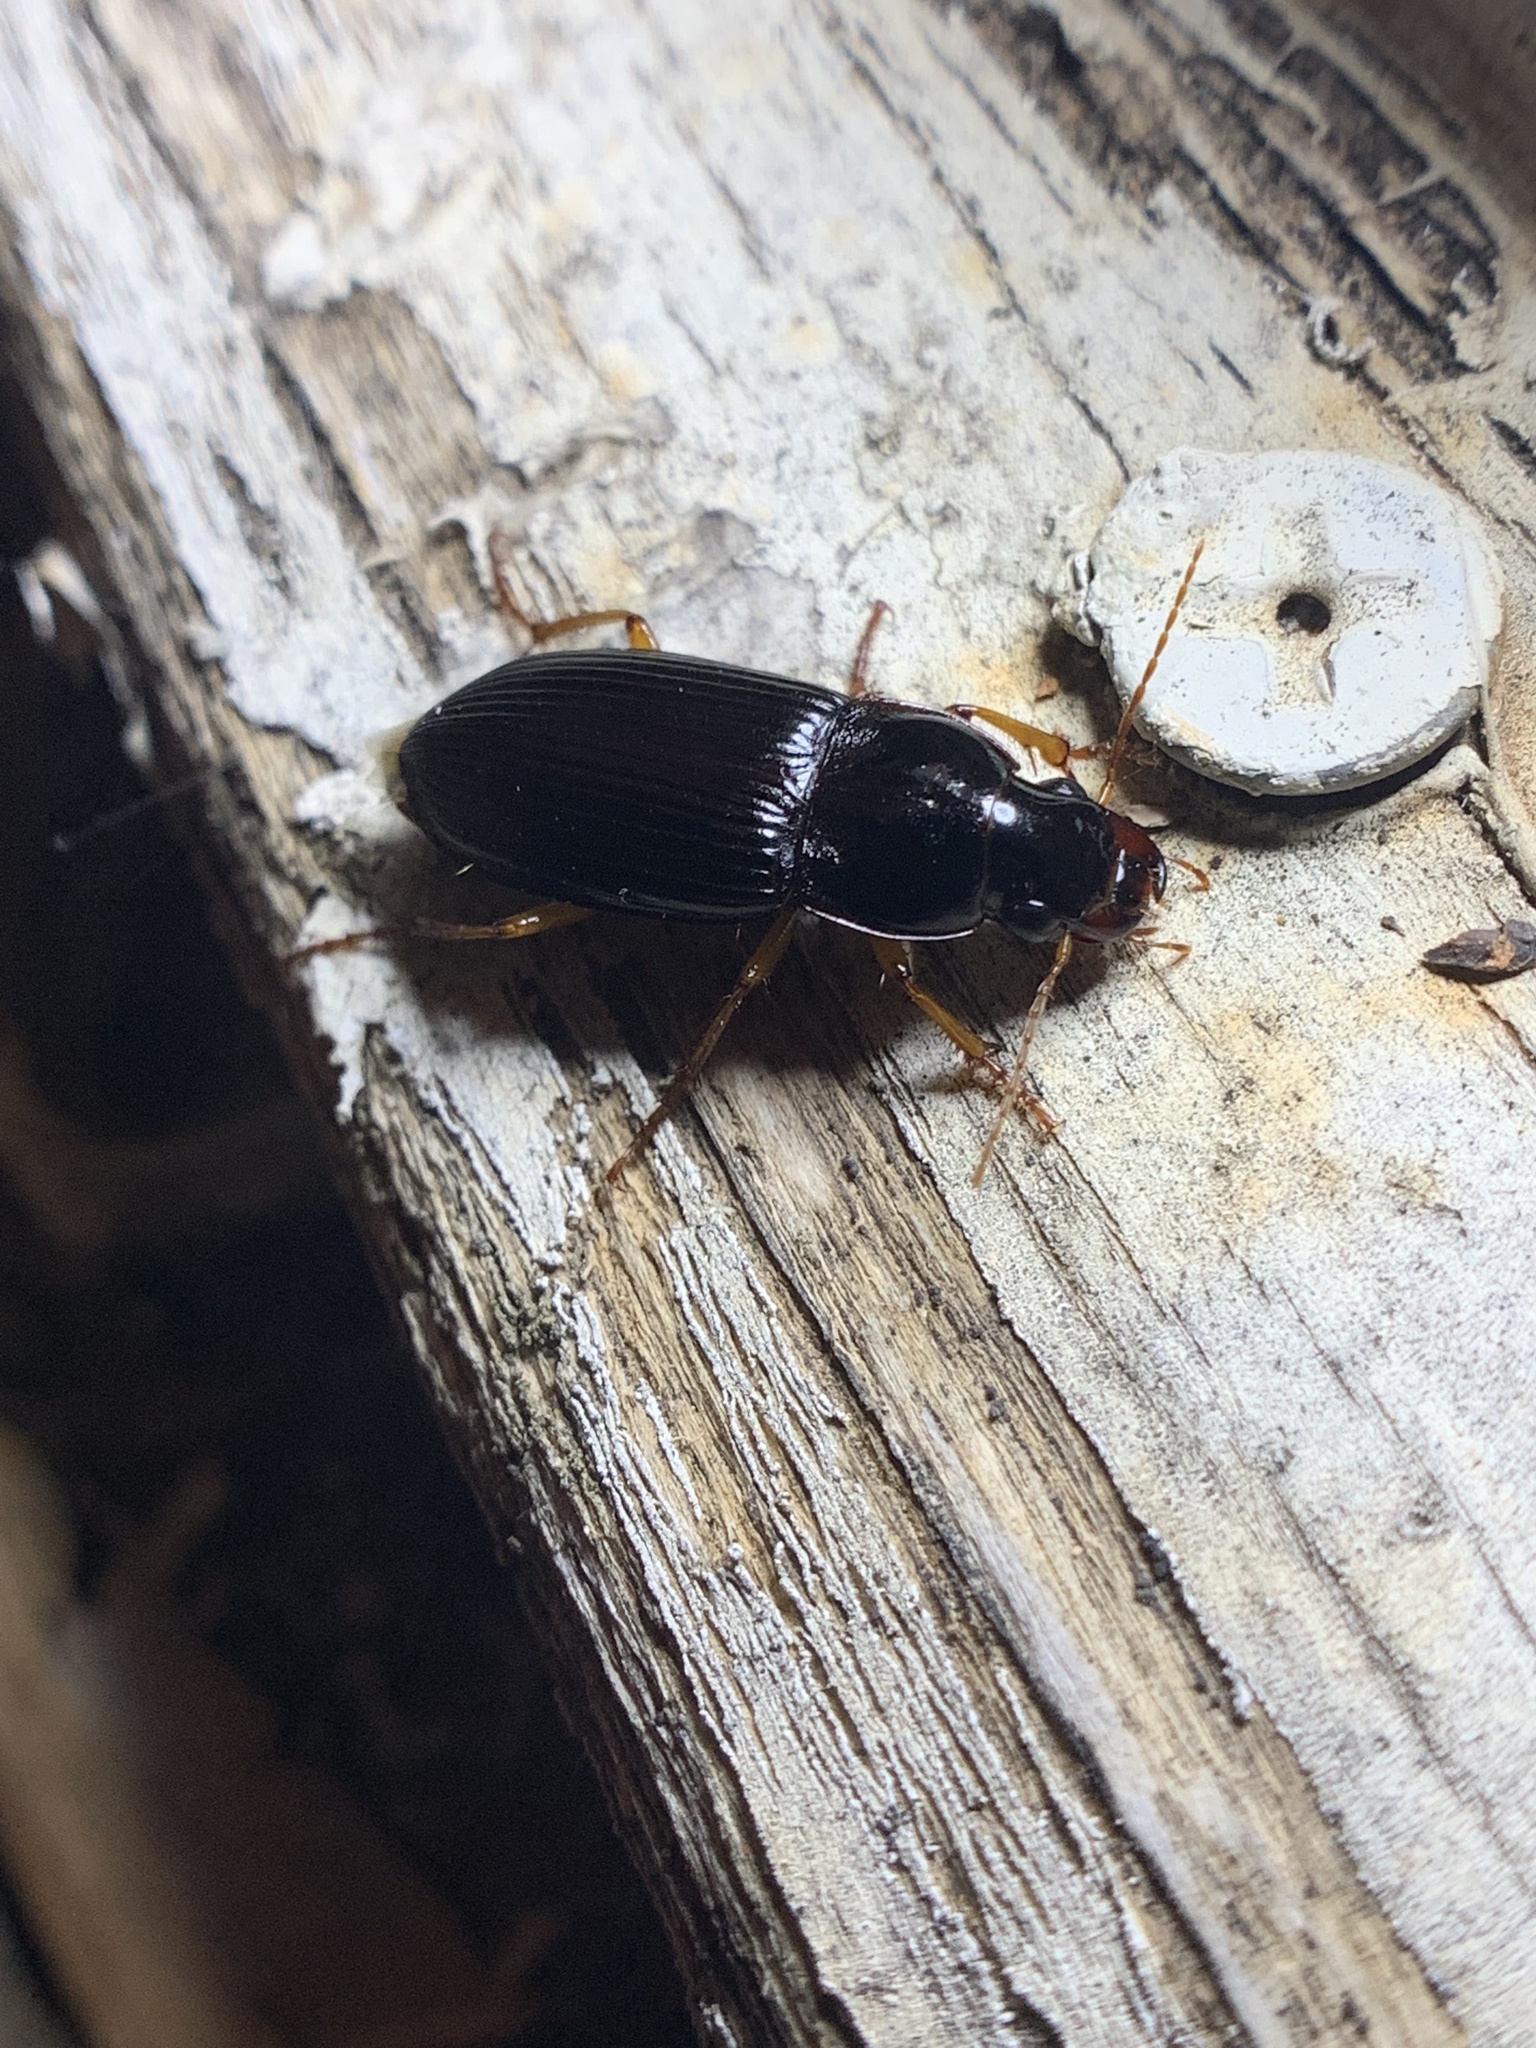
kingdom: Animalia
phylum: Arthropoda
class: Insecta
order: Coleoptera
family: Carabidae
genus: Harpalus
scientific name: Harpalus pensylvanicus
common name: Pennsylvania dingy ground beetle
